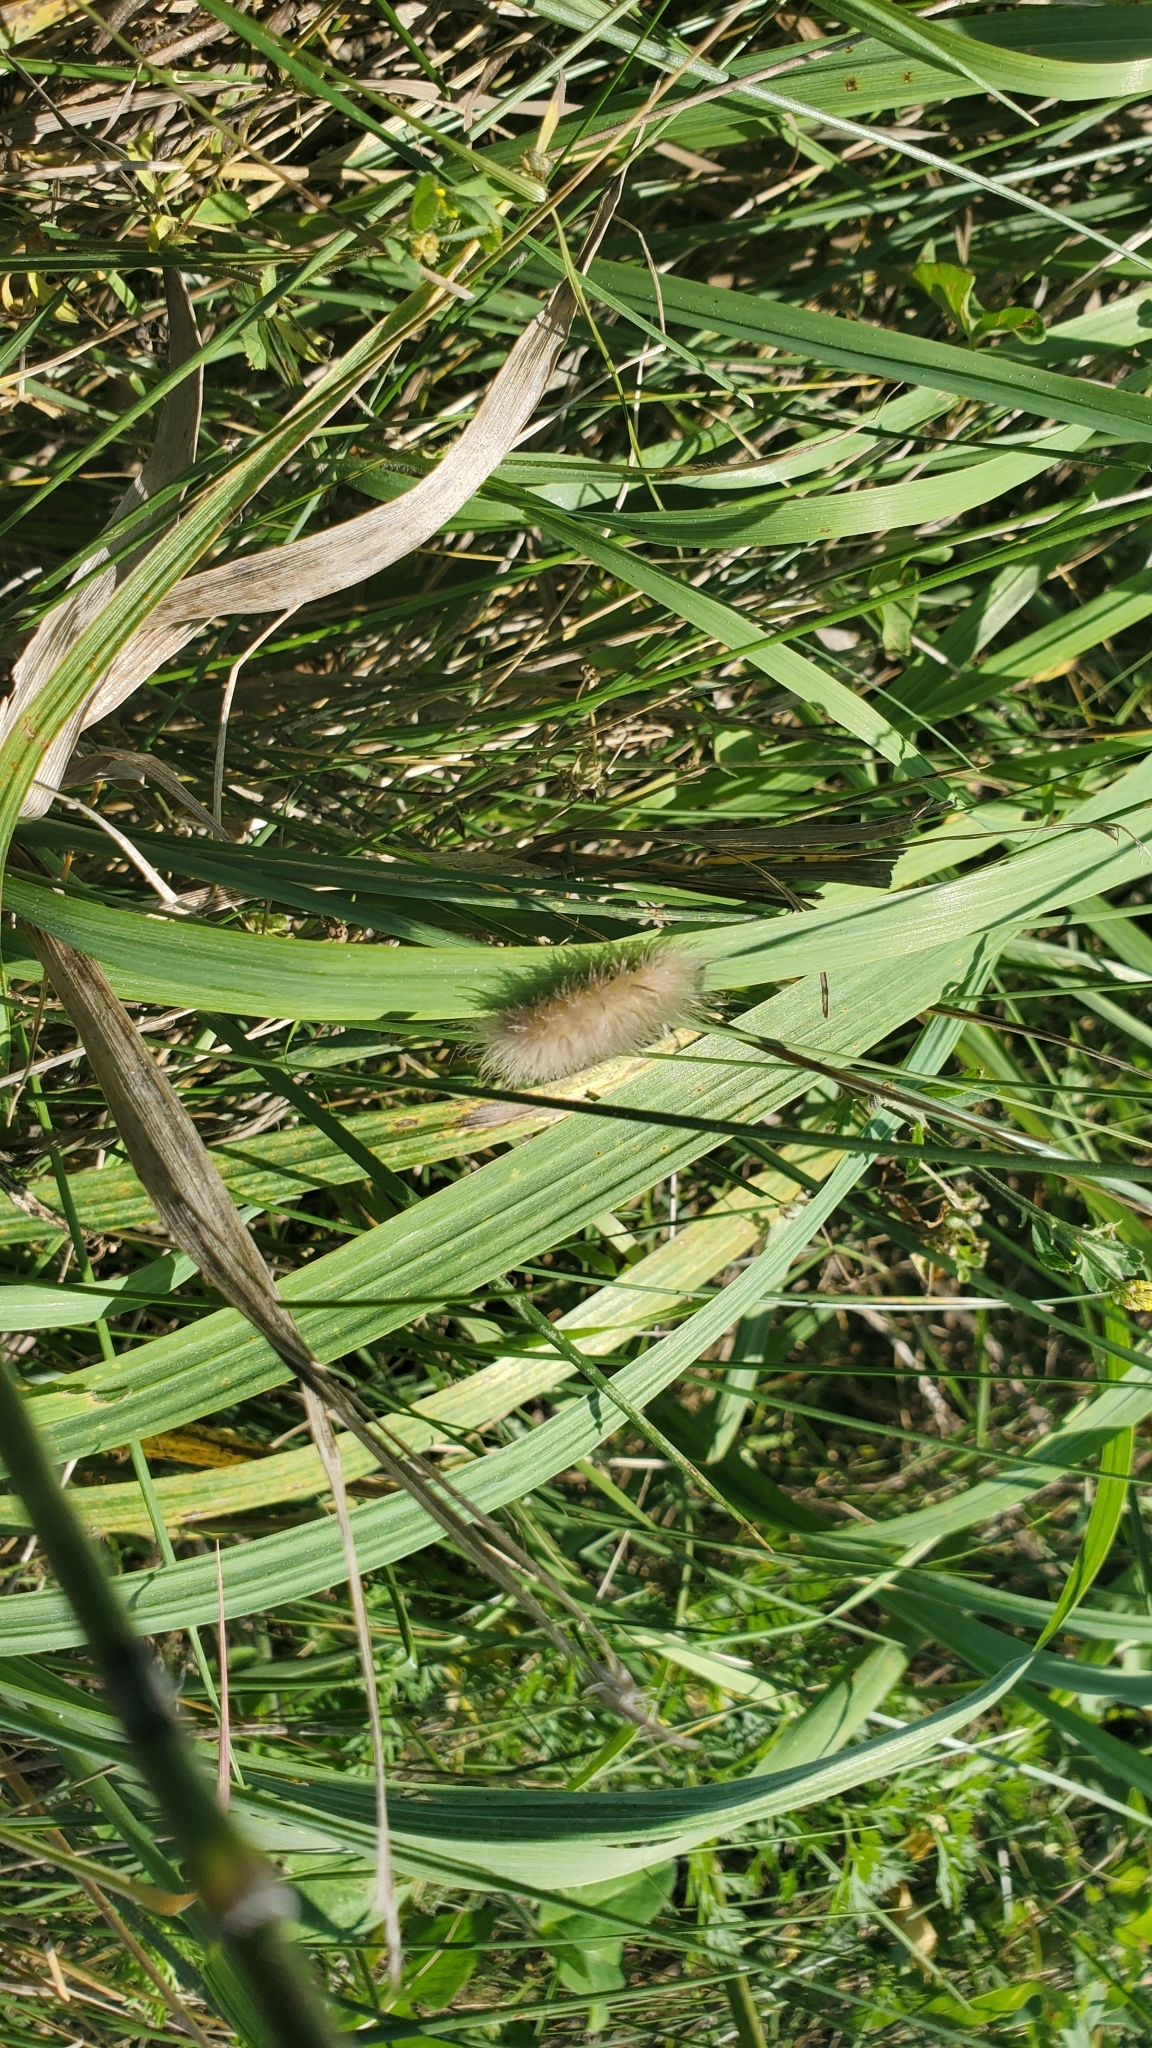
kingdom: Animalia
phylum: Arthropoda
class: Insecta
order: Lepidoptera
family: Erebidae
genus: Cycnia
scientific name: Cycnia tenera
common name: Delicate cycnia moth
